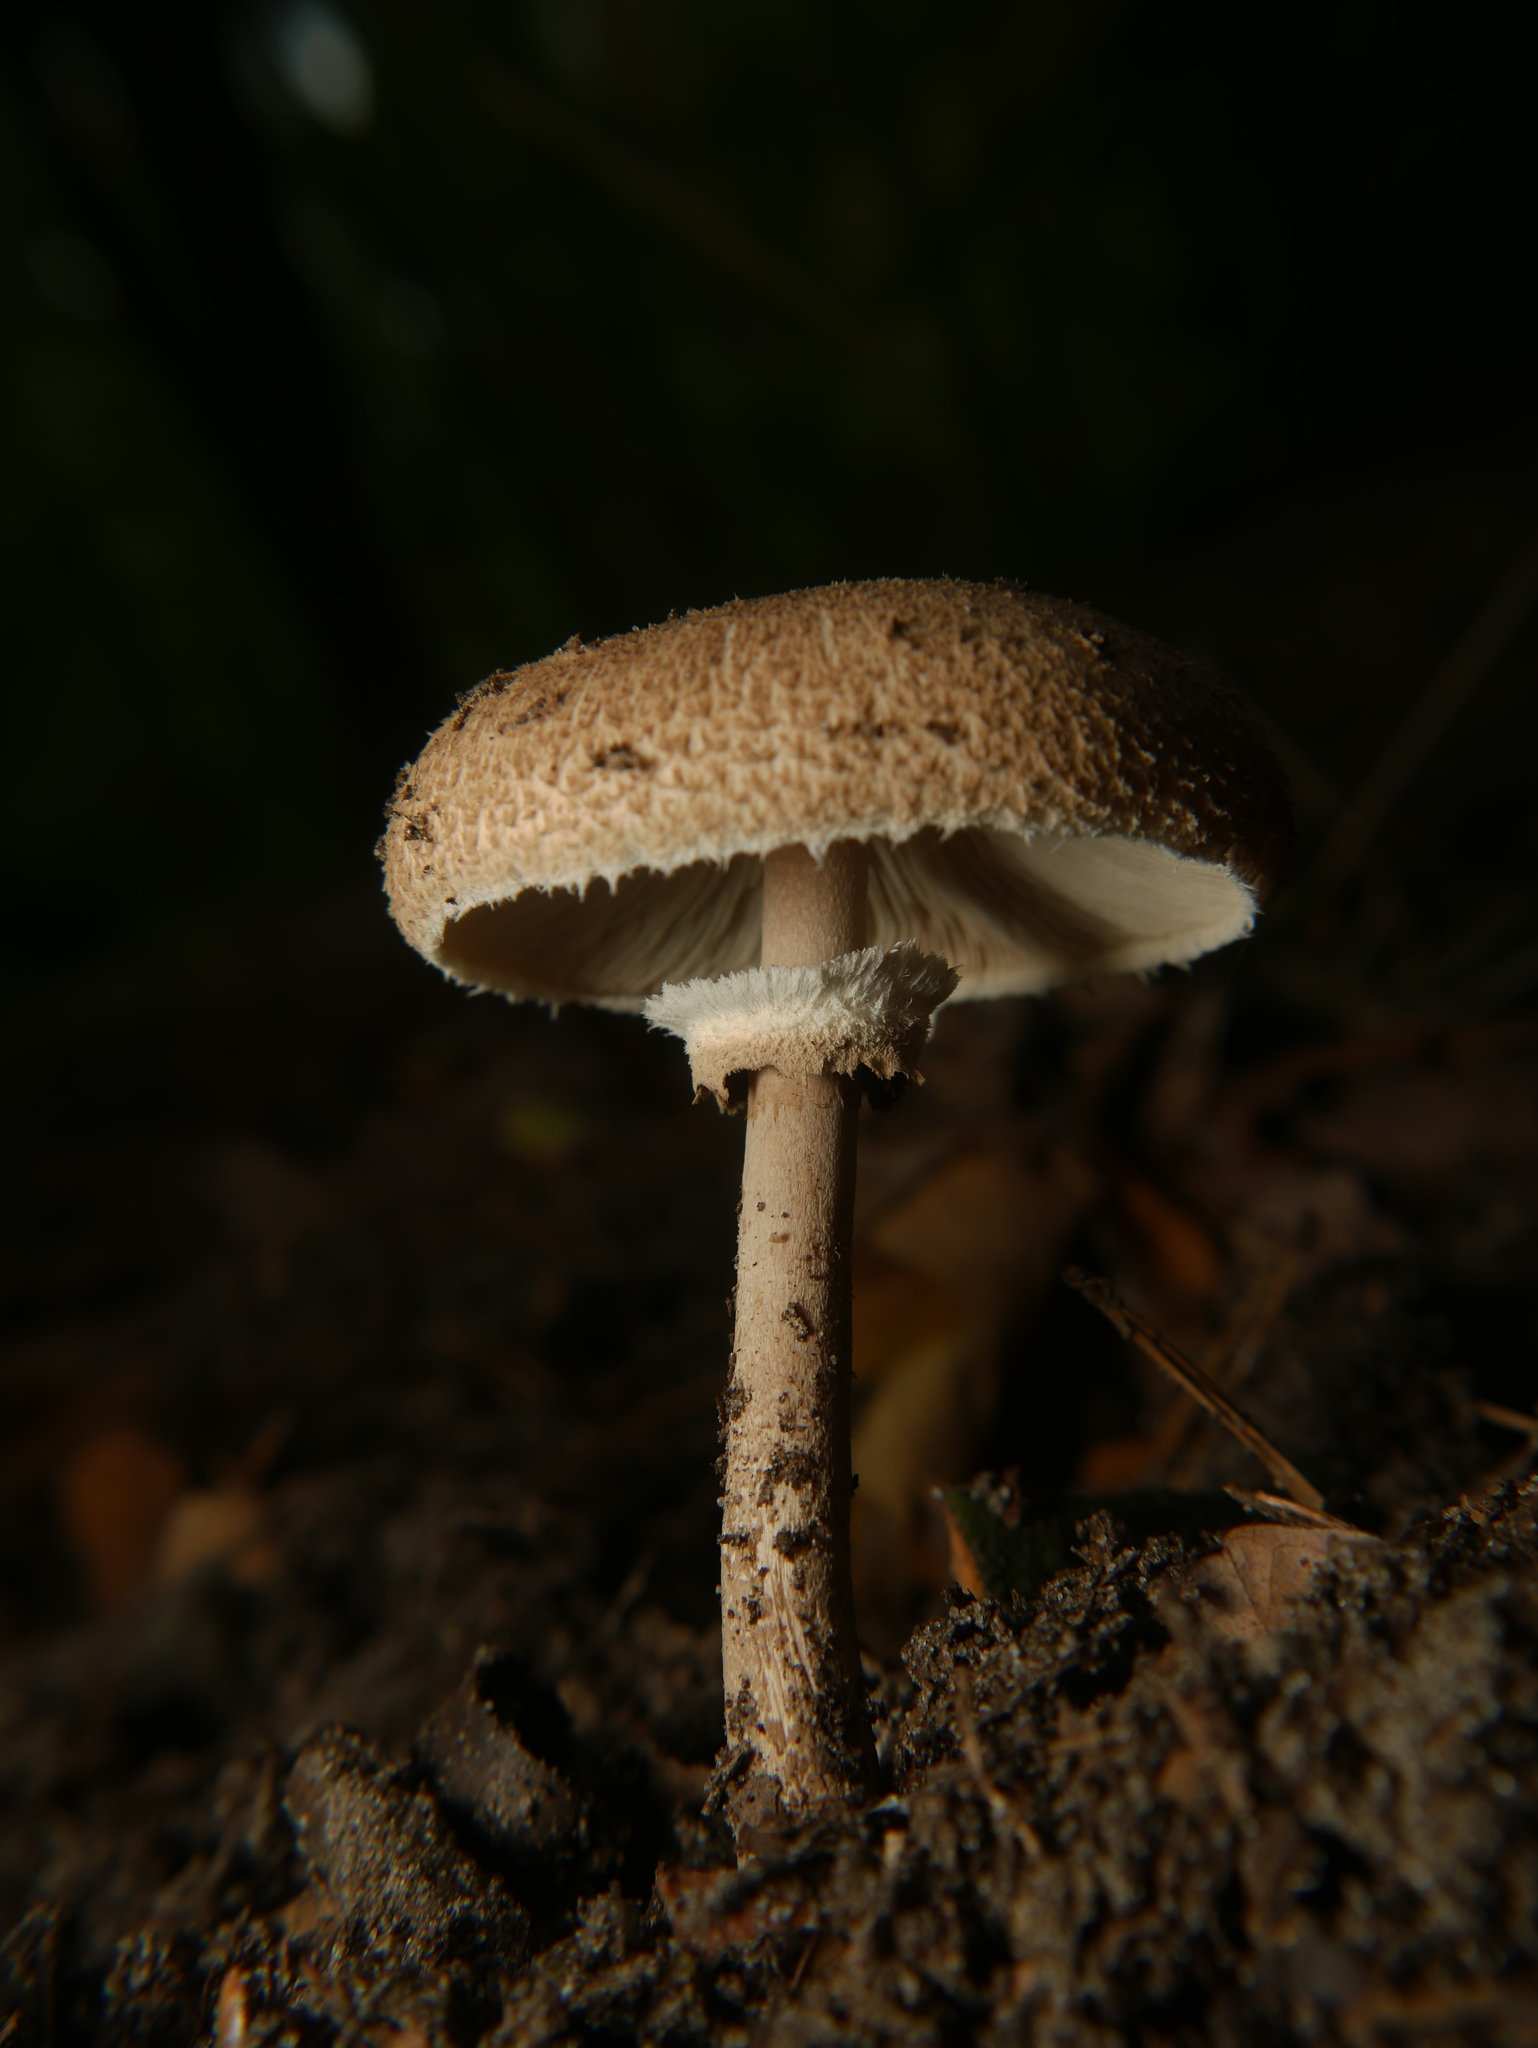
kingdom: Fungi
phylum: Basidiomycota
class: Agaricomycetes
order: Agaricales
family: Agaricaceae
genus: Macrolepiota
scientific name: Macrolepiota procera
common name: Parasol
